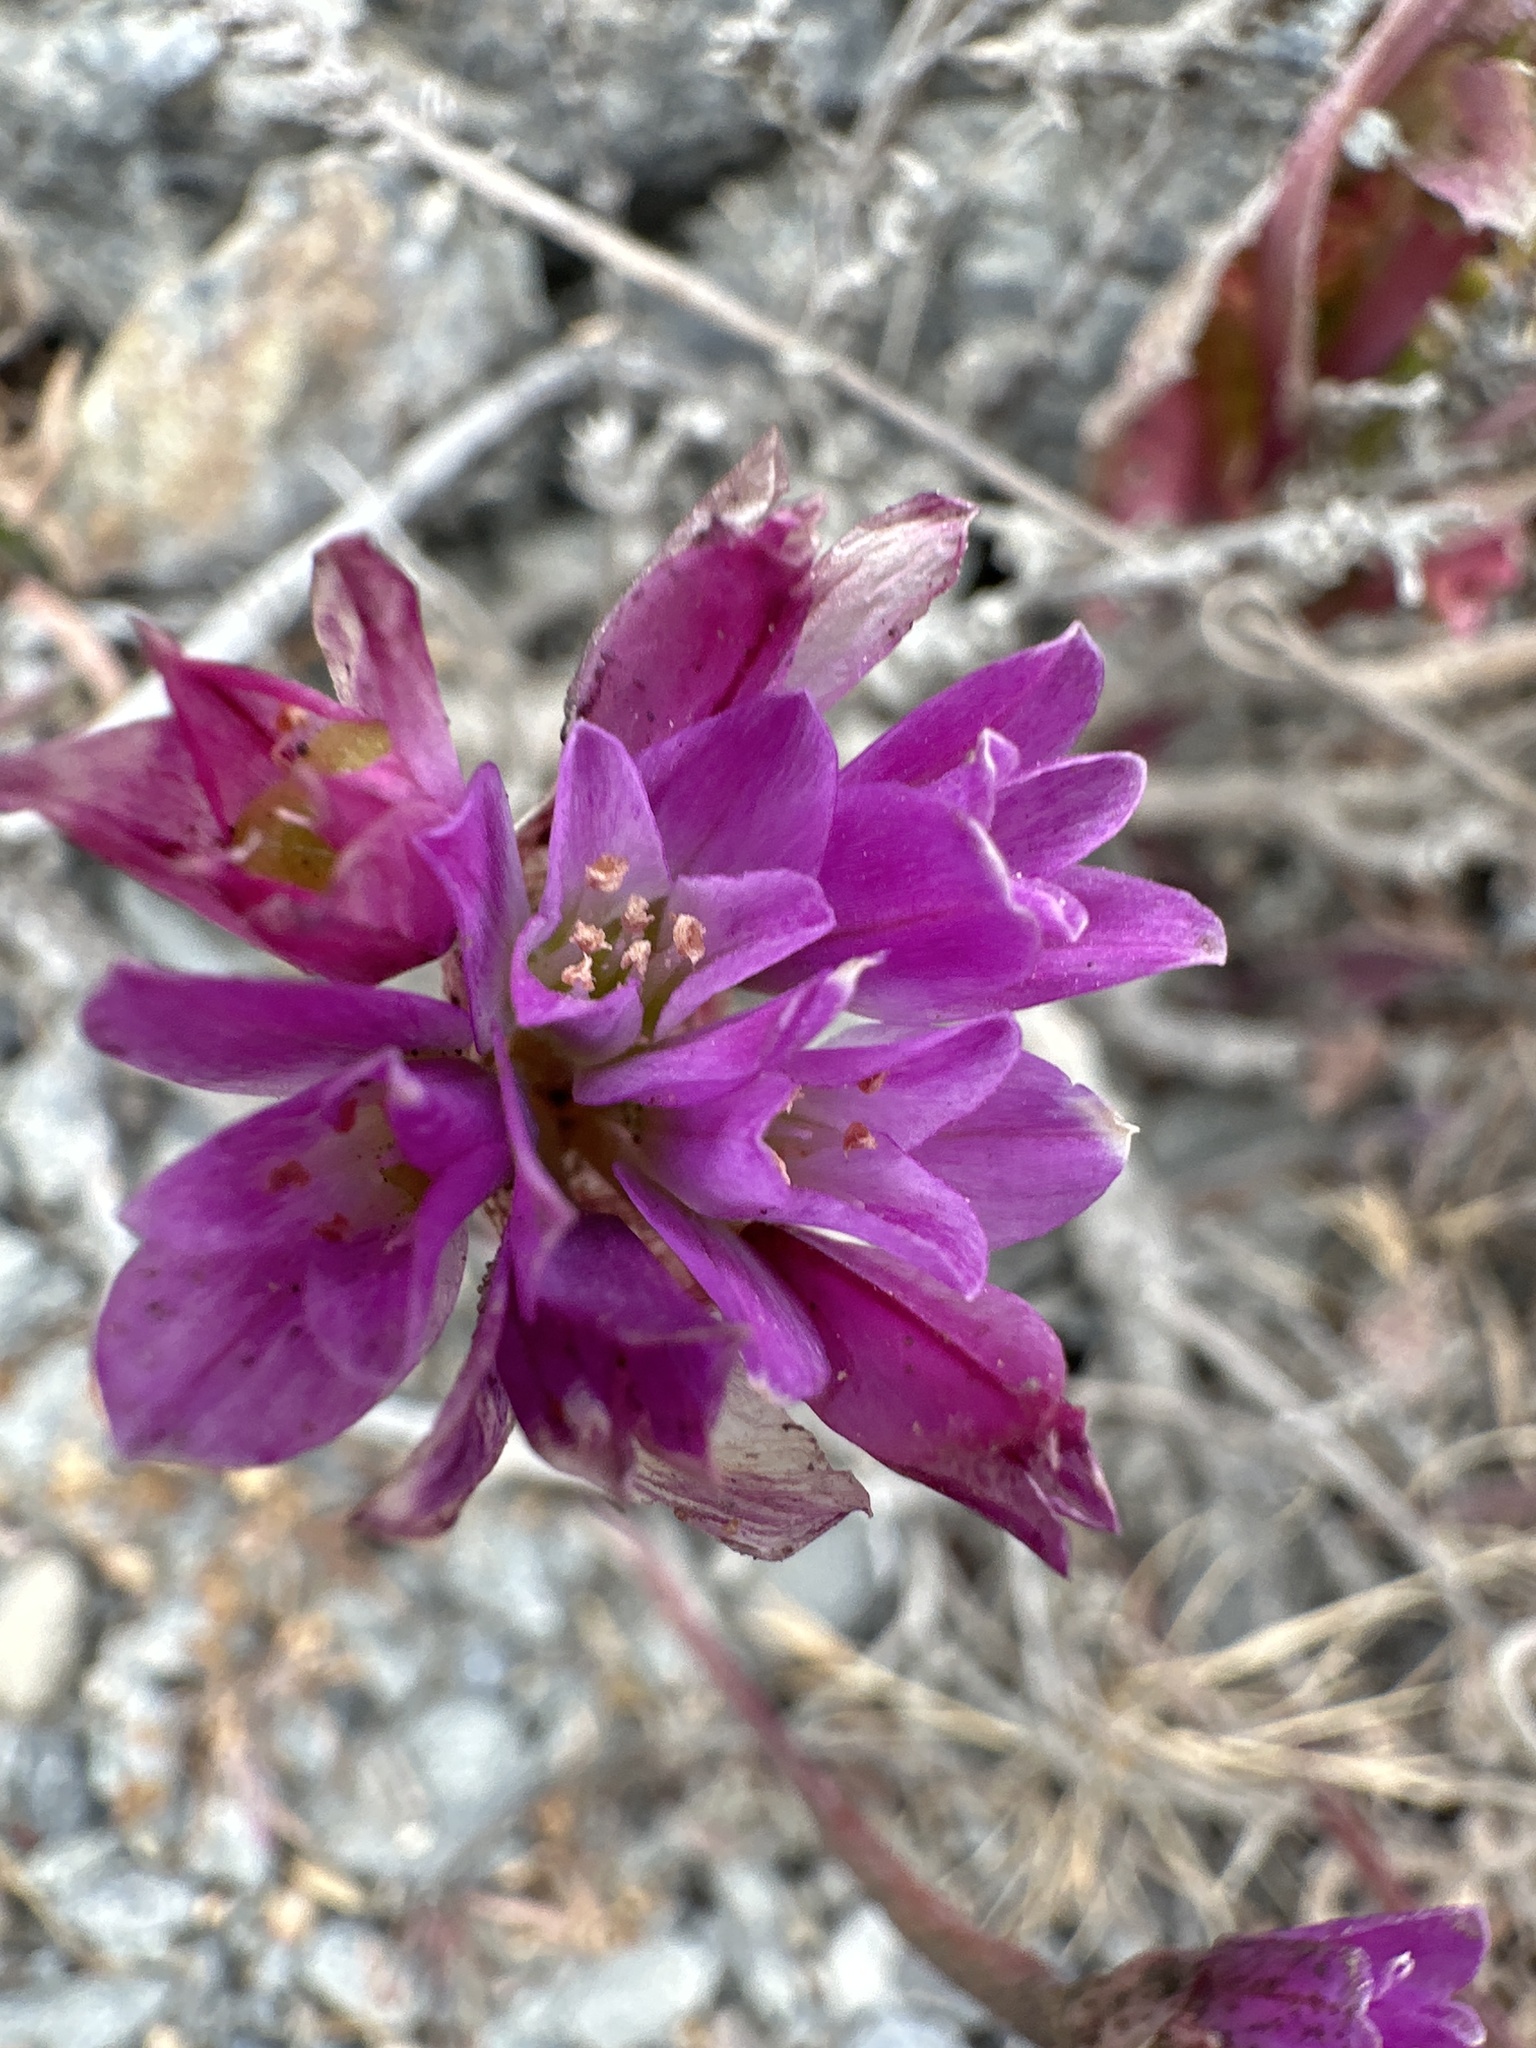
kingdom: Plantae
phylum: Tracheophyta
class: Liliopsida
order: Asparagales
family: Amaryllidaceae
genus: Allium
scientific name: Allium dichlamydeum
